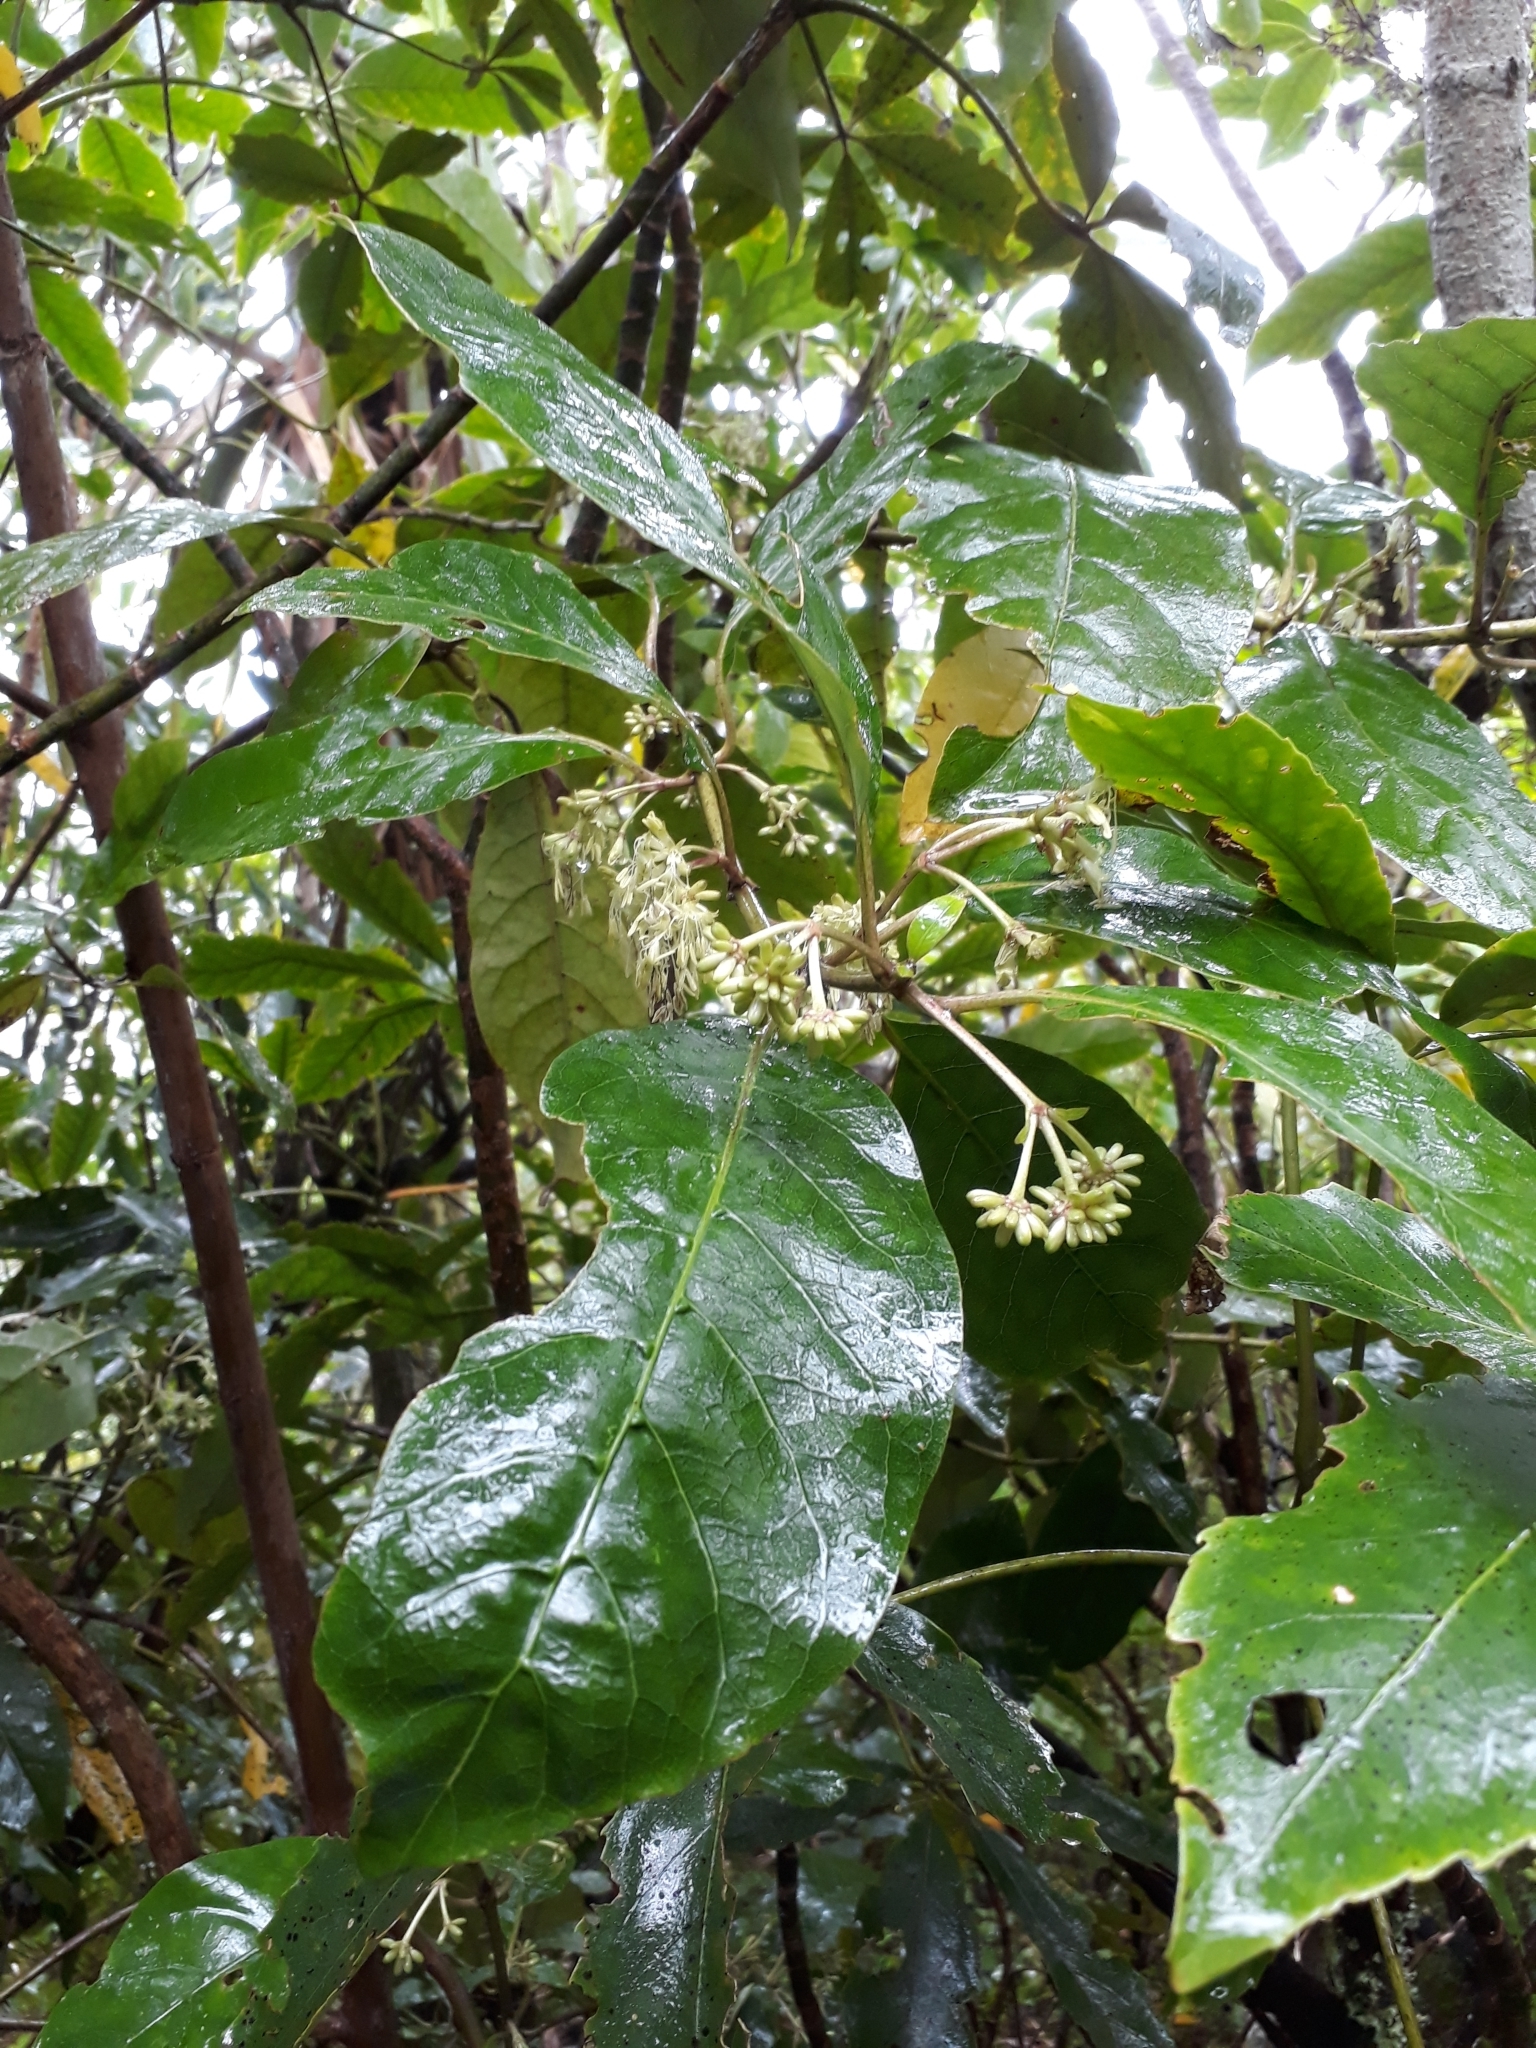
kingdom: Plantae
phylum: Tracheophyta
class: Magnoliopsida
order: Gentianales
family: Rubiaceae
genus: Coprosma
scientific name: Coprosma autumnalis
